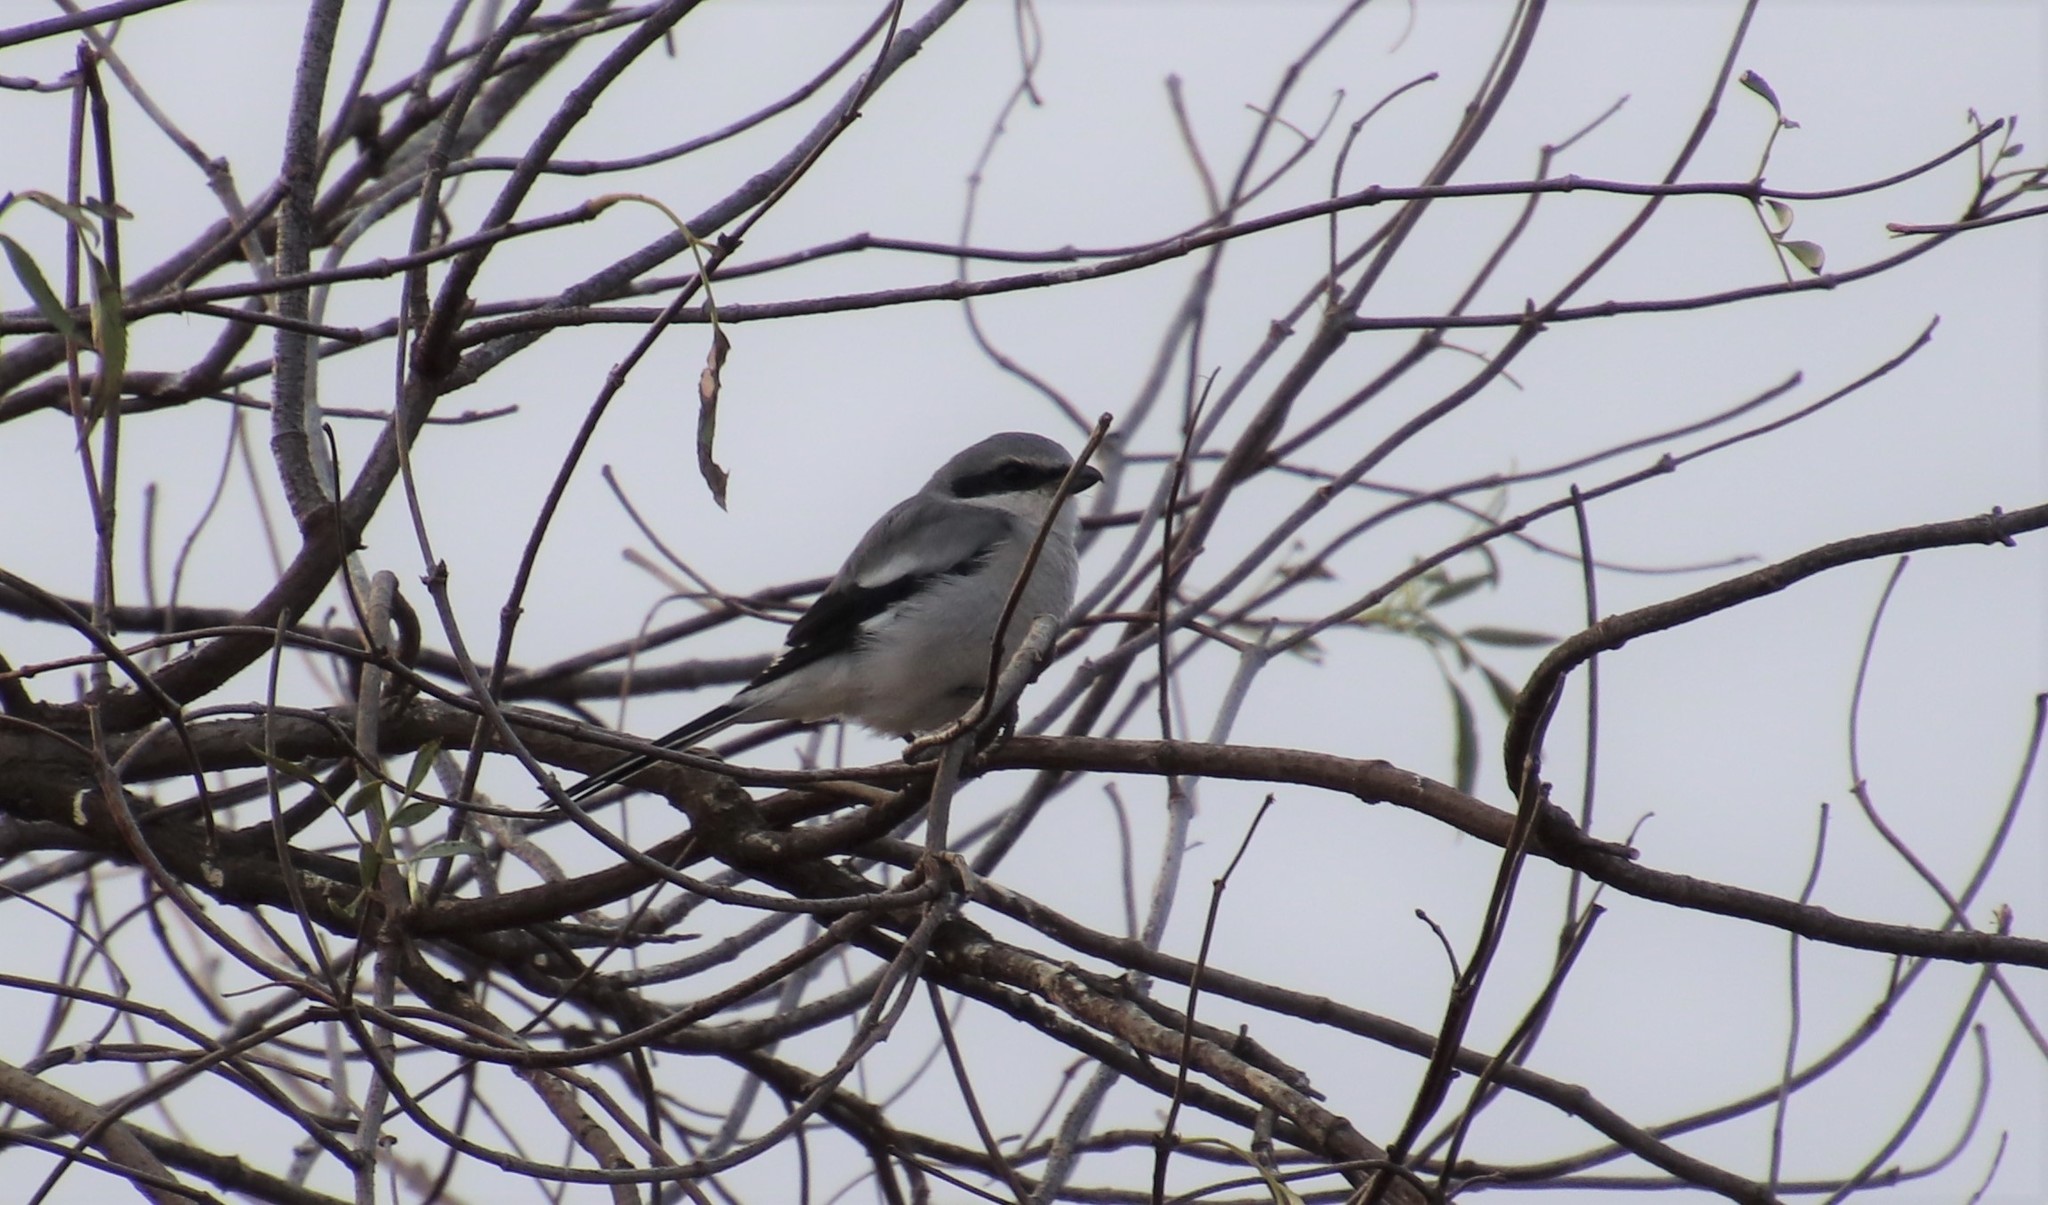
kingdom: Animalia
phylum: Chordata
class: Aves
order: Passeriformes
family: Laniidae
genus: Lanius
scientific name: Lanius ludovicianus
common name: Loggerhead shrike
